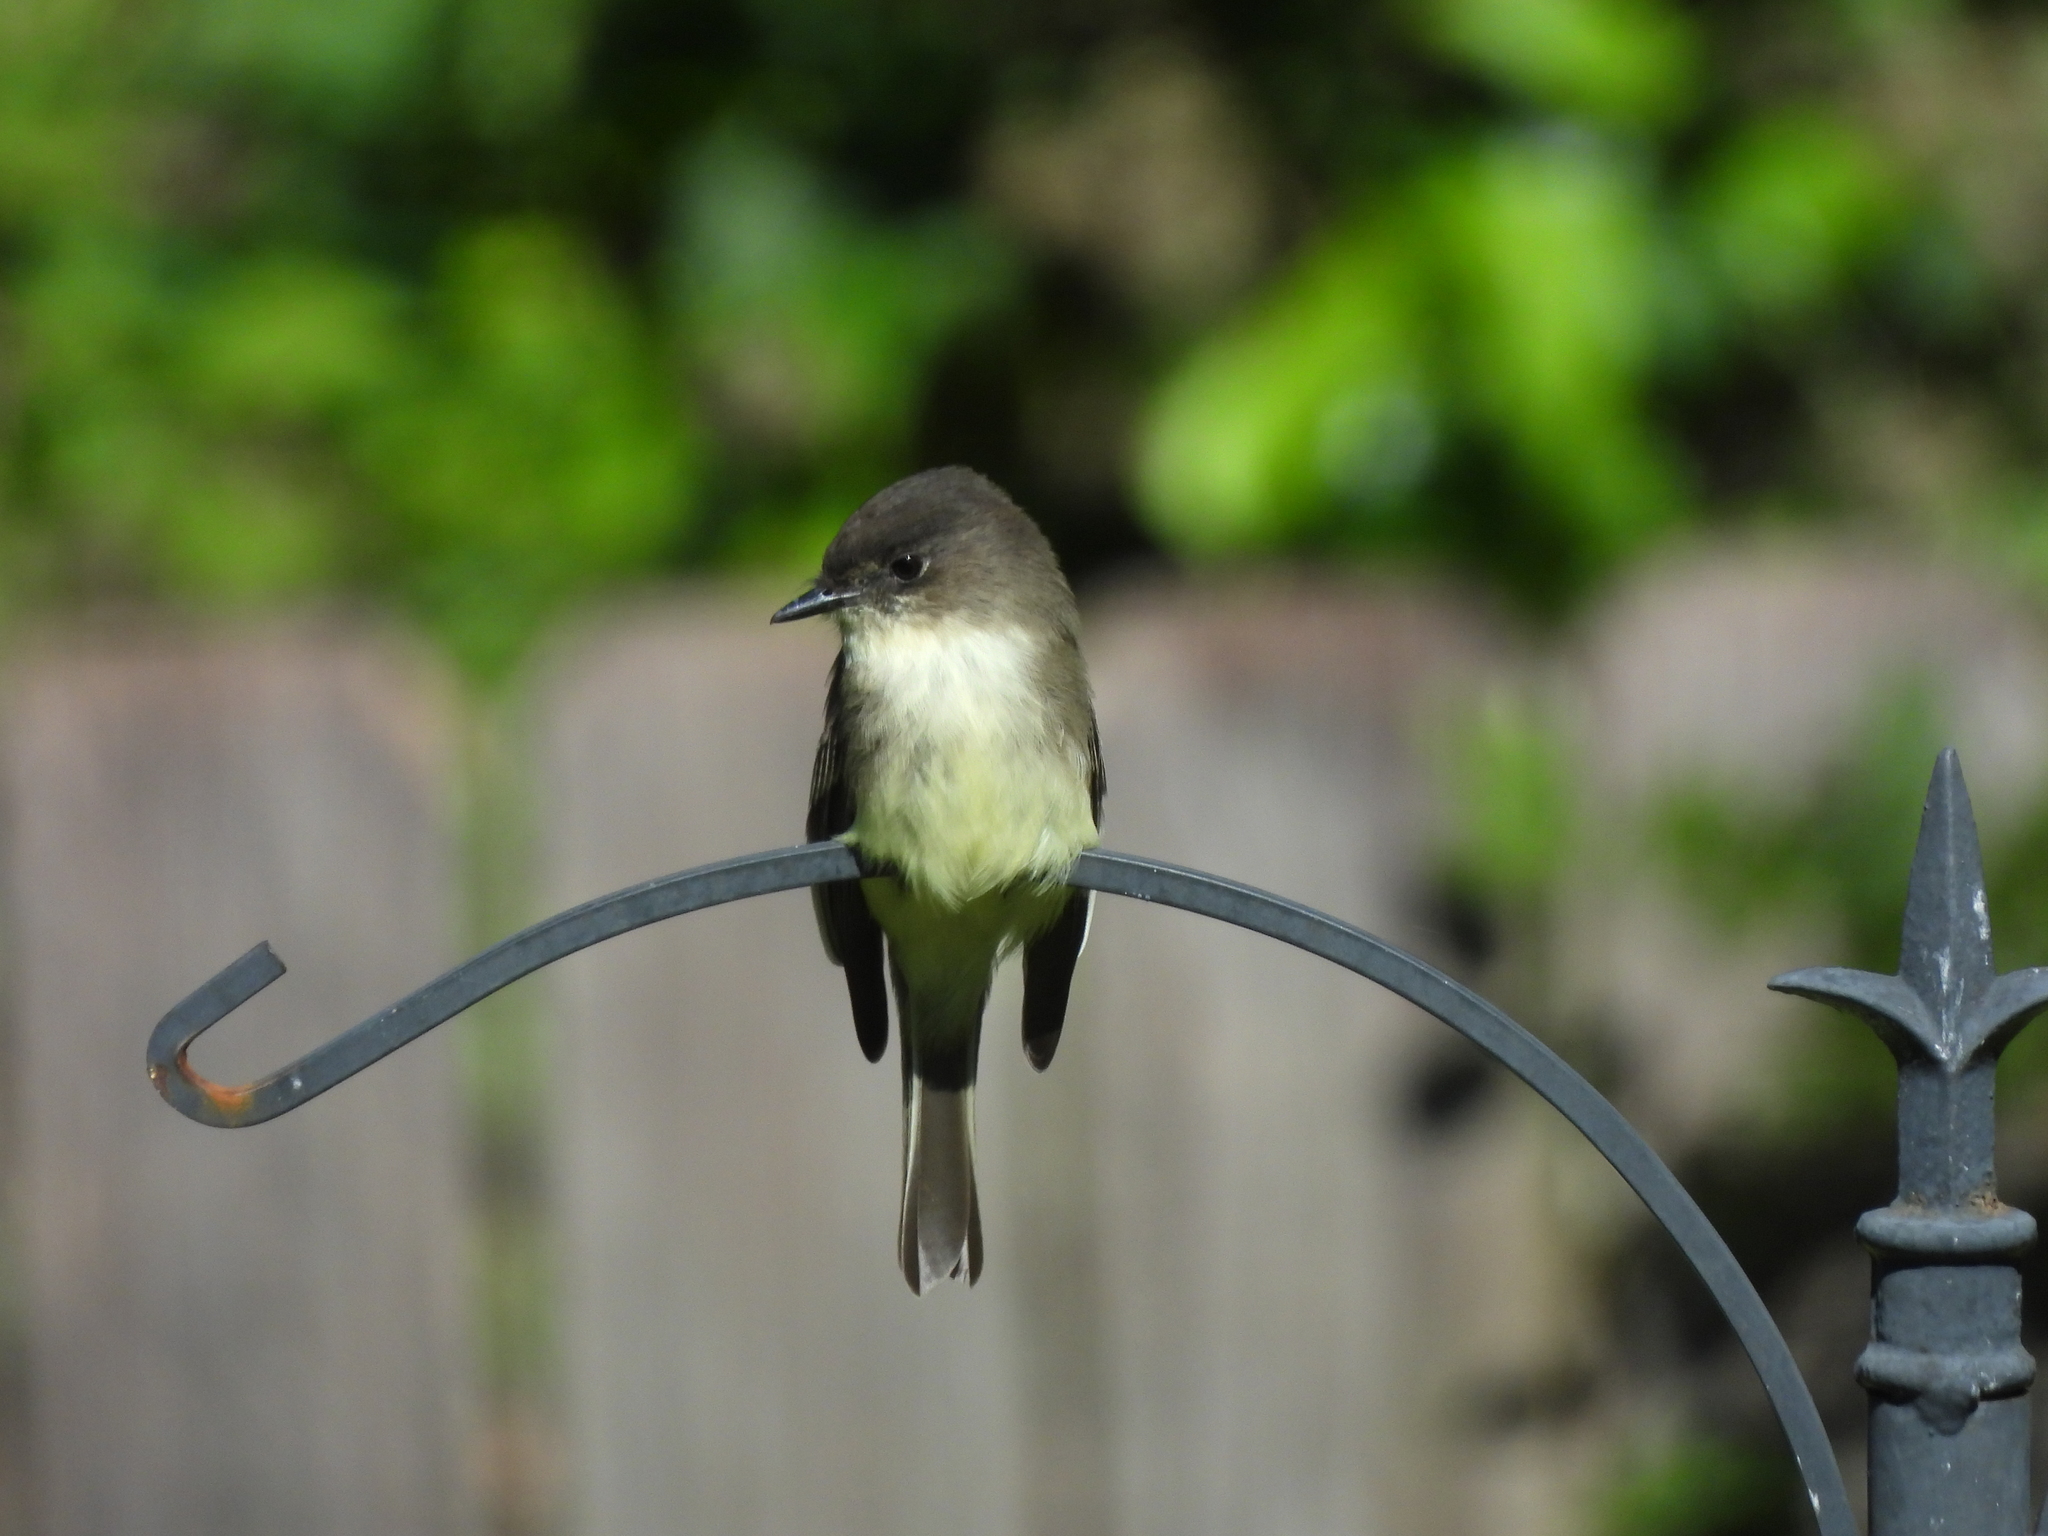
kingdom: Animalia
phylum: Chordata
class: Aves
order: Passeriformes
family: Tyrannidae
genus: Sayornis
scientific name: Sayornis phoebe
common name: Eastern phoebe
